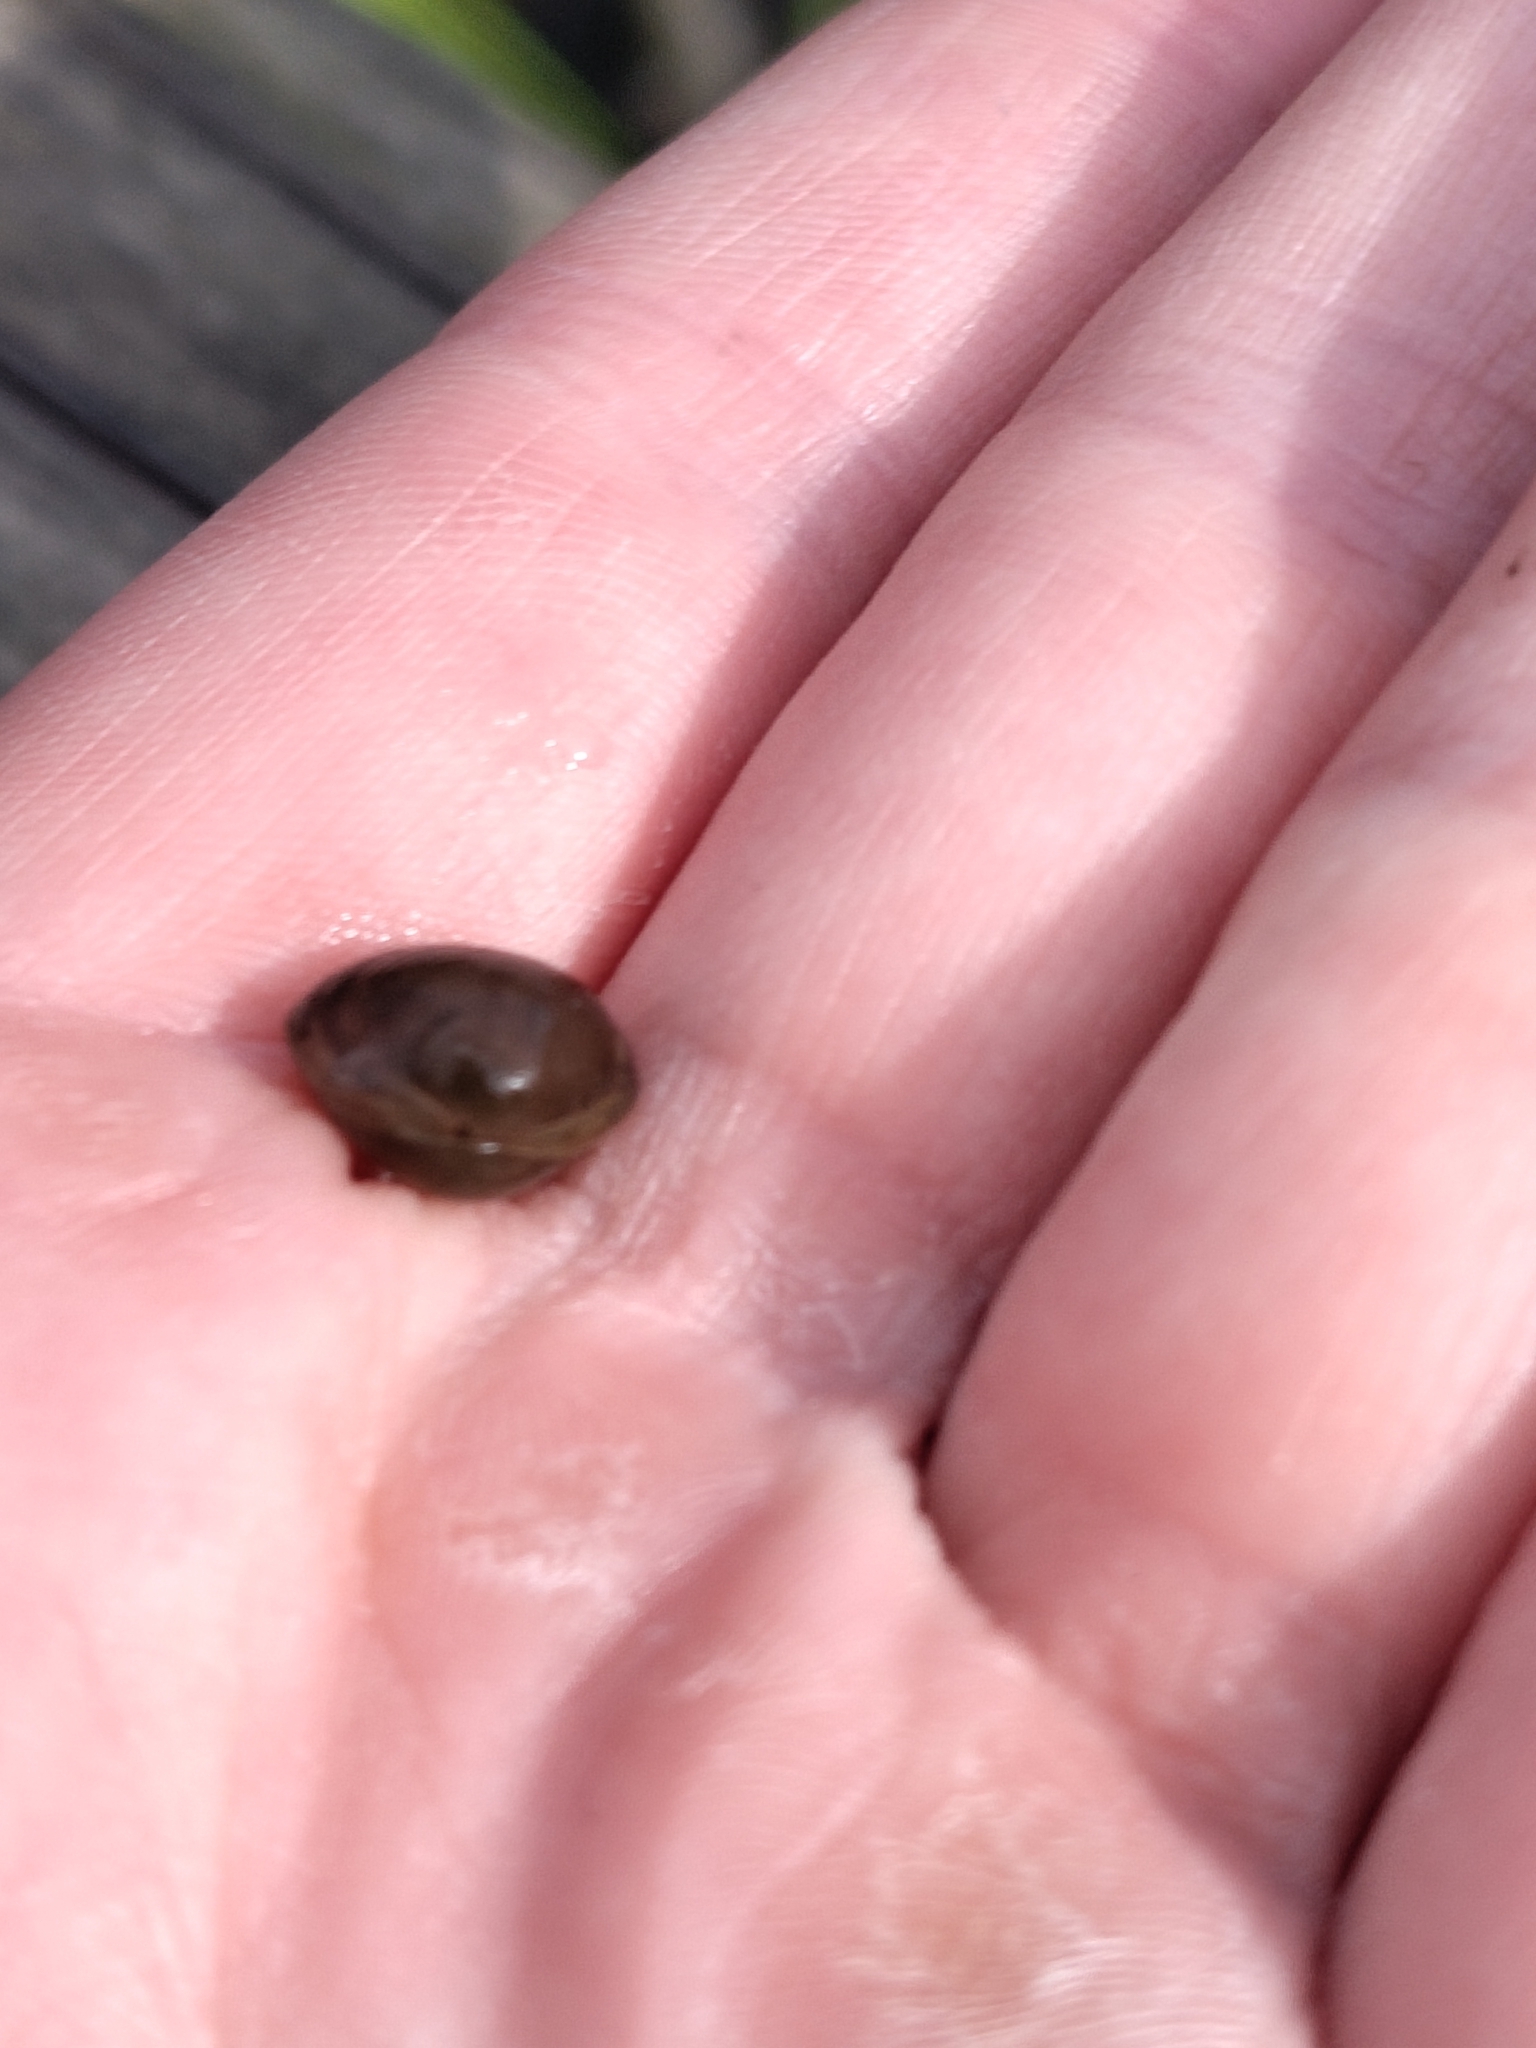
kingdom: Animalia
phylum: Mollusca
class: Bivalvia
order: Sphaeriida
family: Sphaeriidae
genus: Sphaerium
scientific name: Sphaerium corneum
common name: Horny orb mussel
